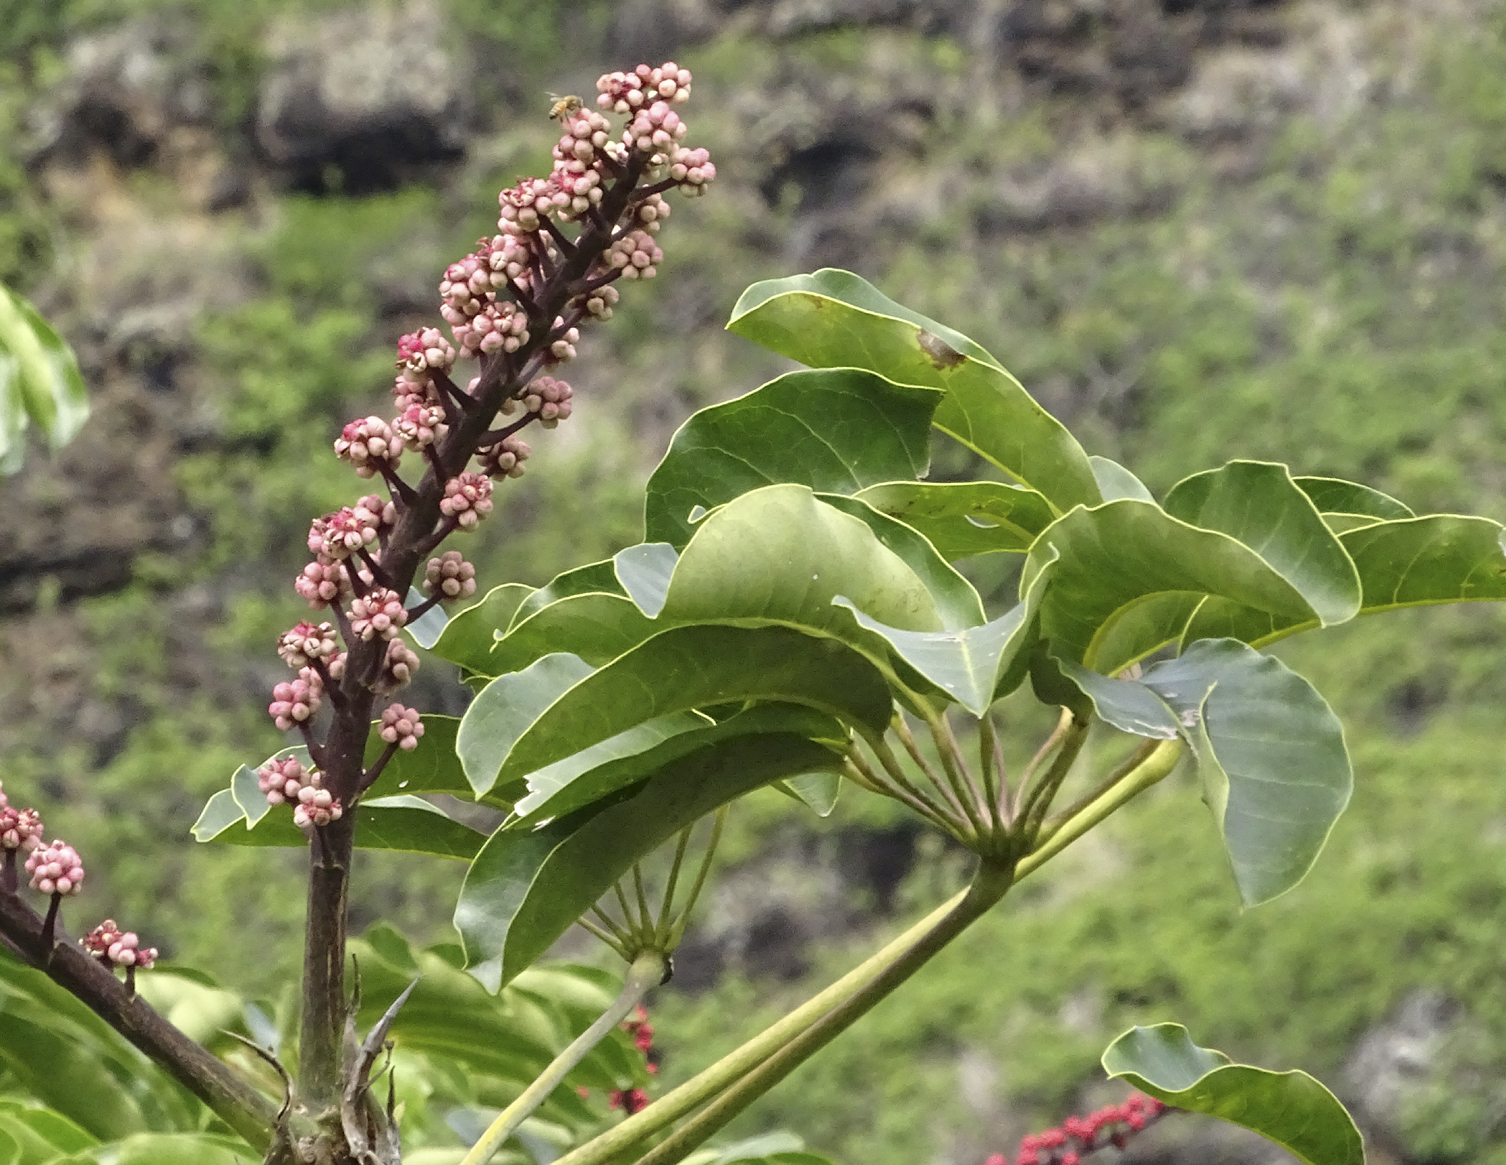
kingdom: Plantae
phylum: Tracheophyta
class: Magnoliopsida
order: Apiales
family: Araliaceae
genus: Heptapleurum
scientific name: Heptapleurum actinophyllum
